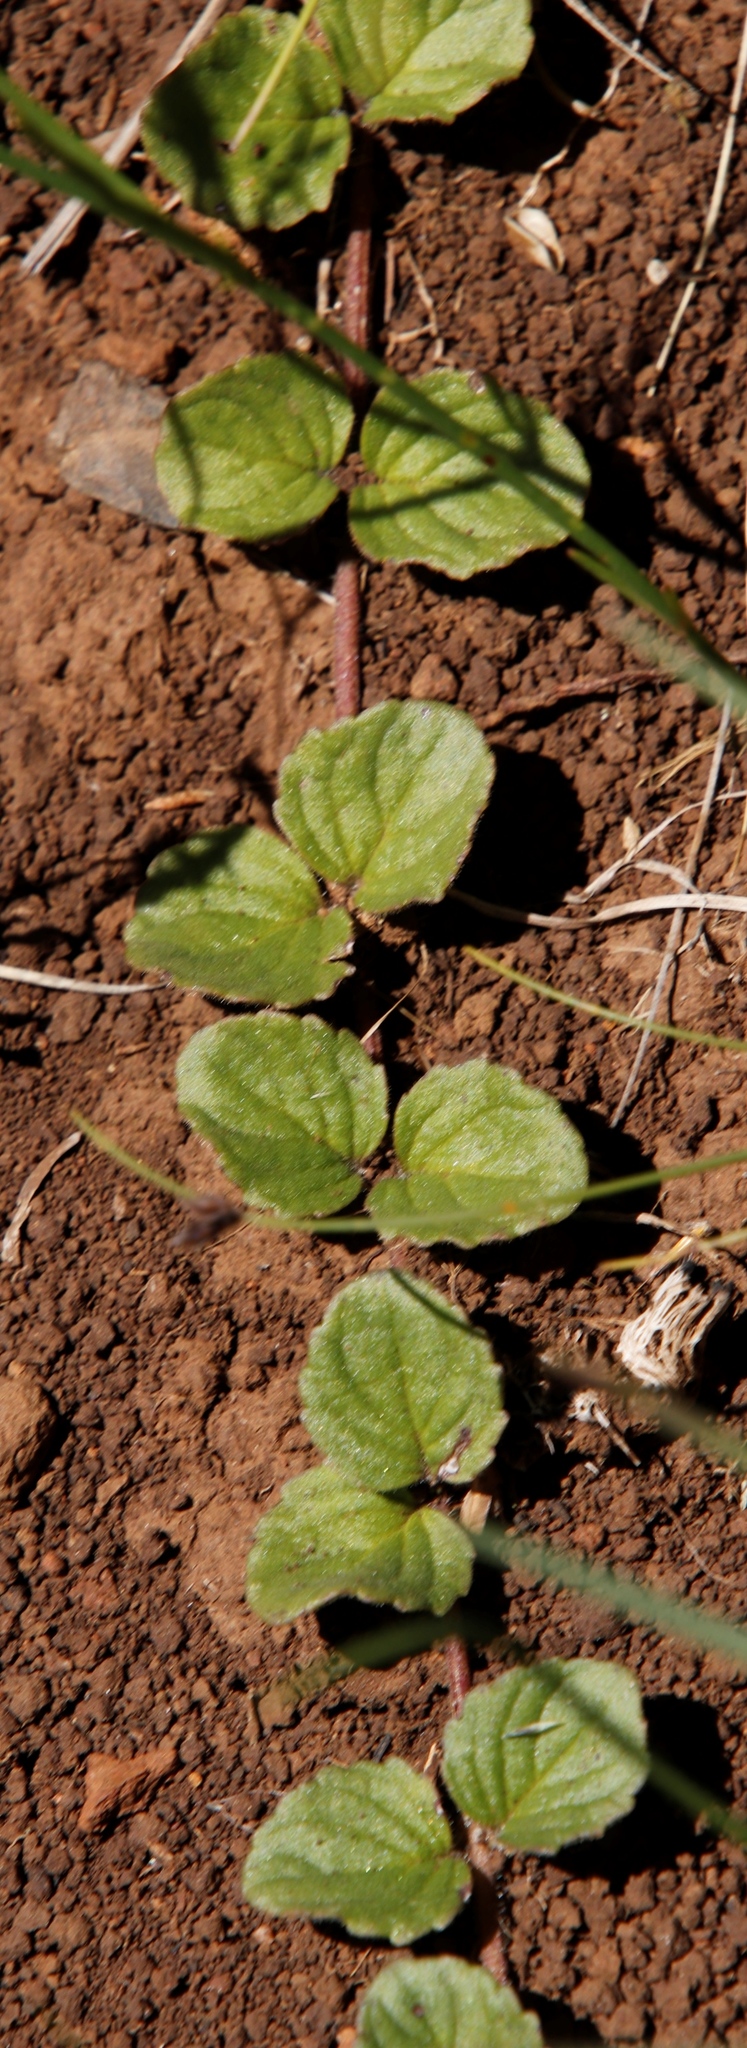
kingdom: Plantae
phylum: Tracheophyta
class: Magnoliopsida
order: Lamiales
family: Scrophulariaceae
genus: Diclis
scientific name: Diclis reptans
